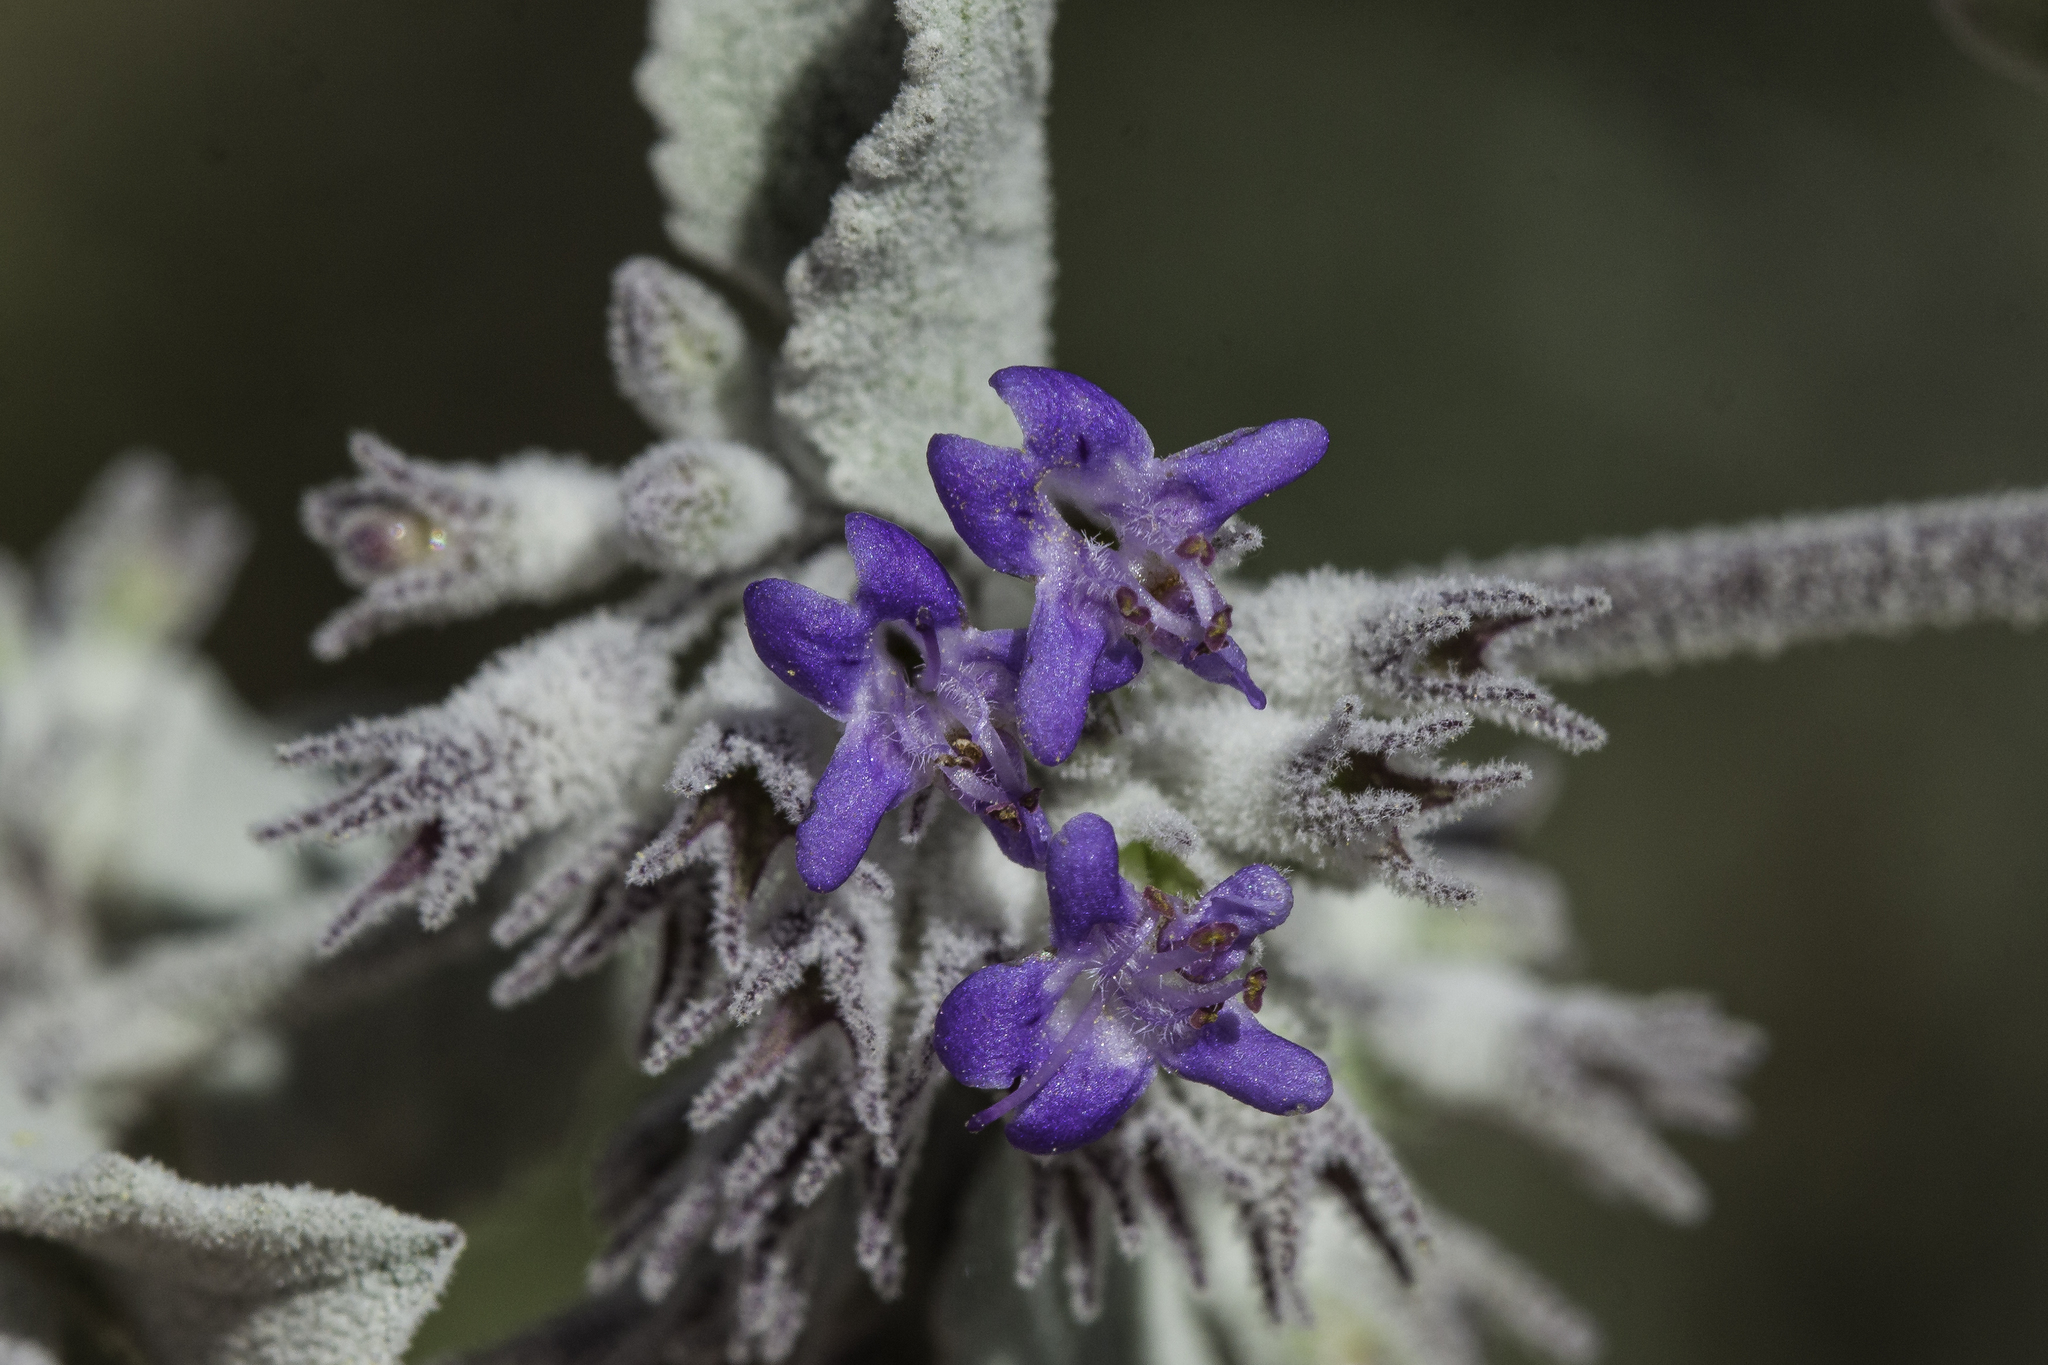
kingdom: Plantae
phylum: Tracheophyta
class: Magnoliopsida
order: Lamiales
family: Lamiaceae
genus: Condea
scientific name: Condea emoryi
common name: Chia
